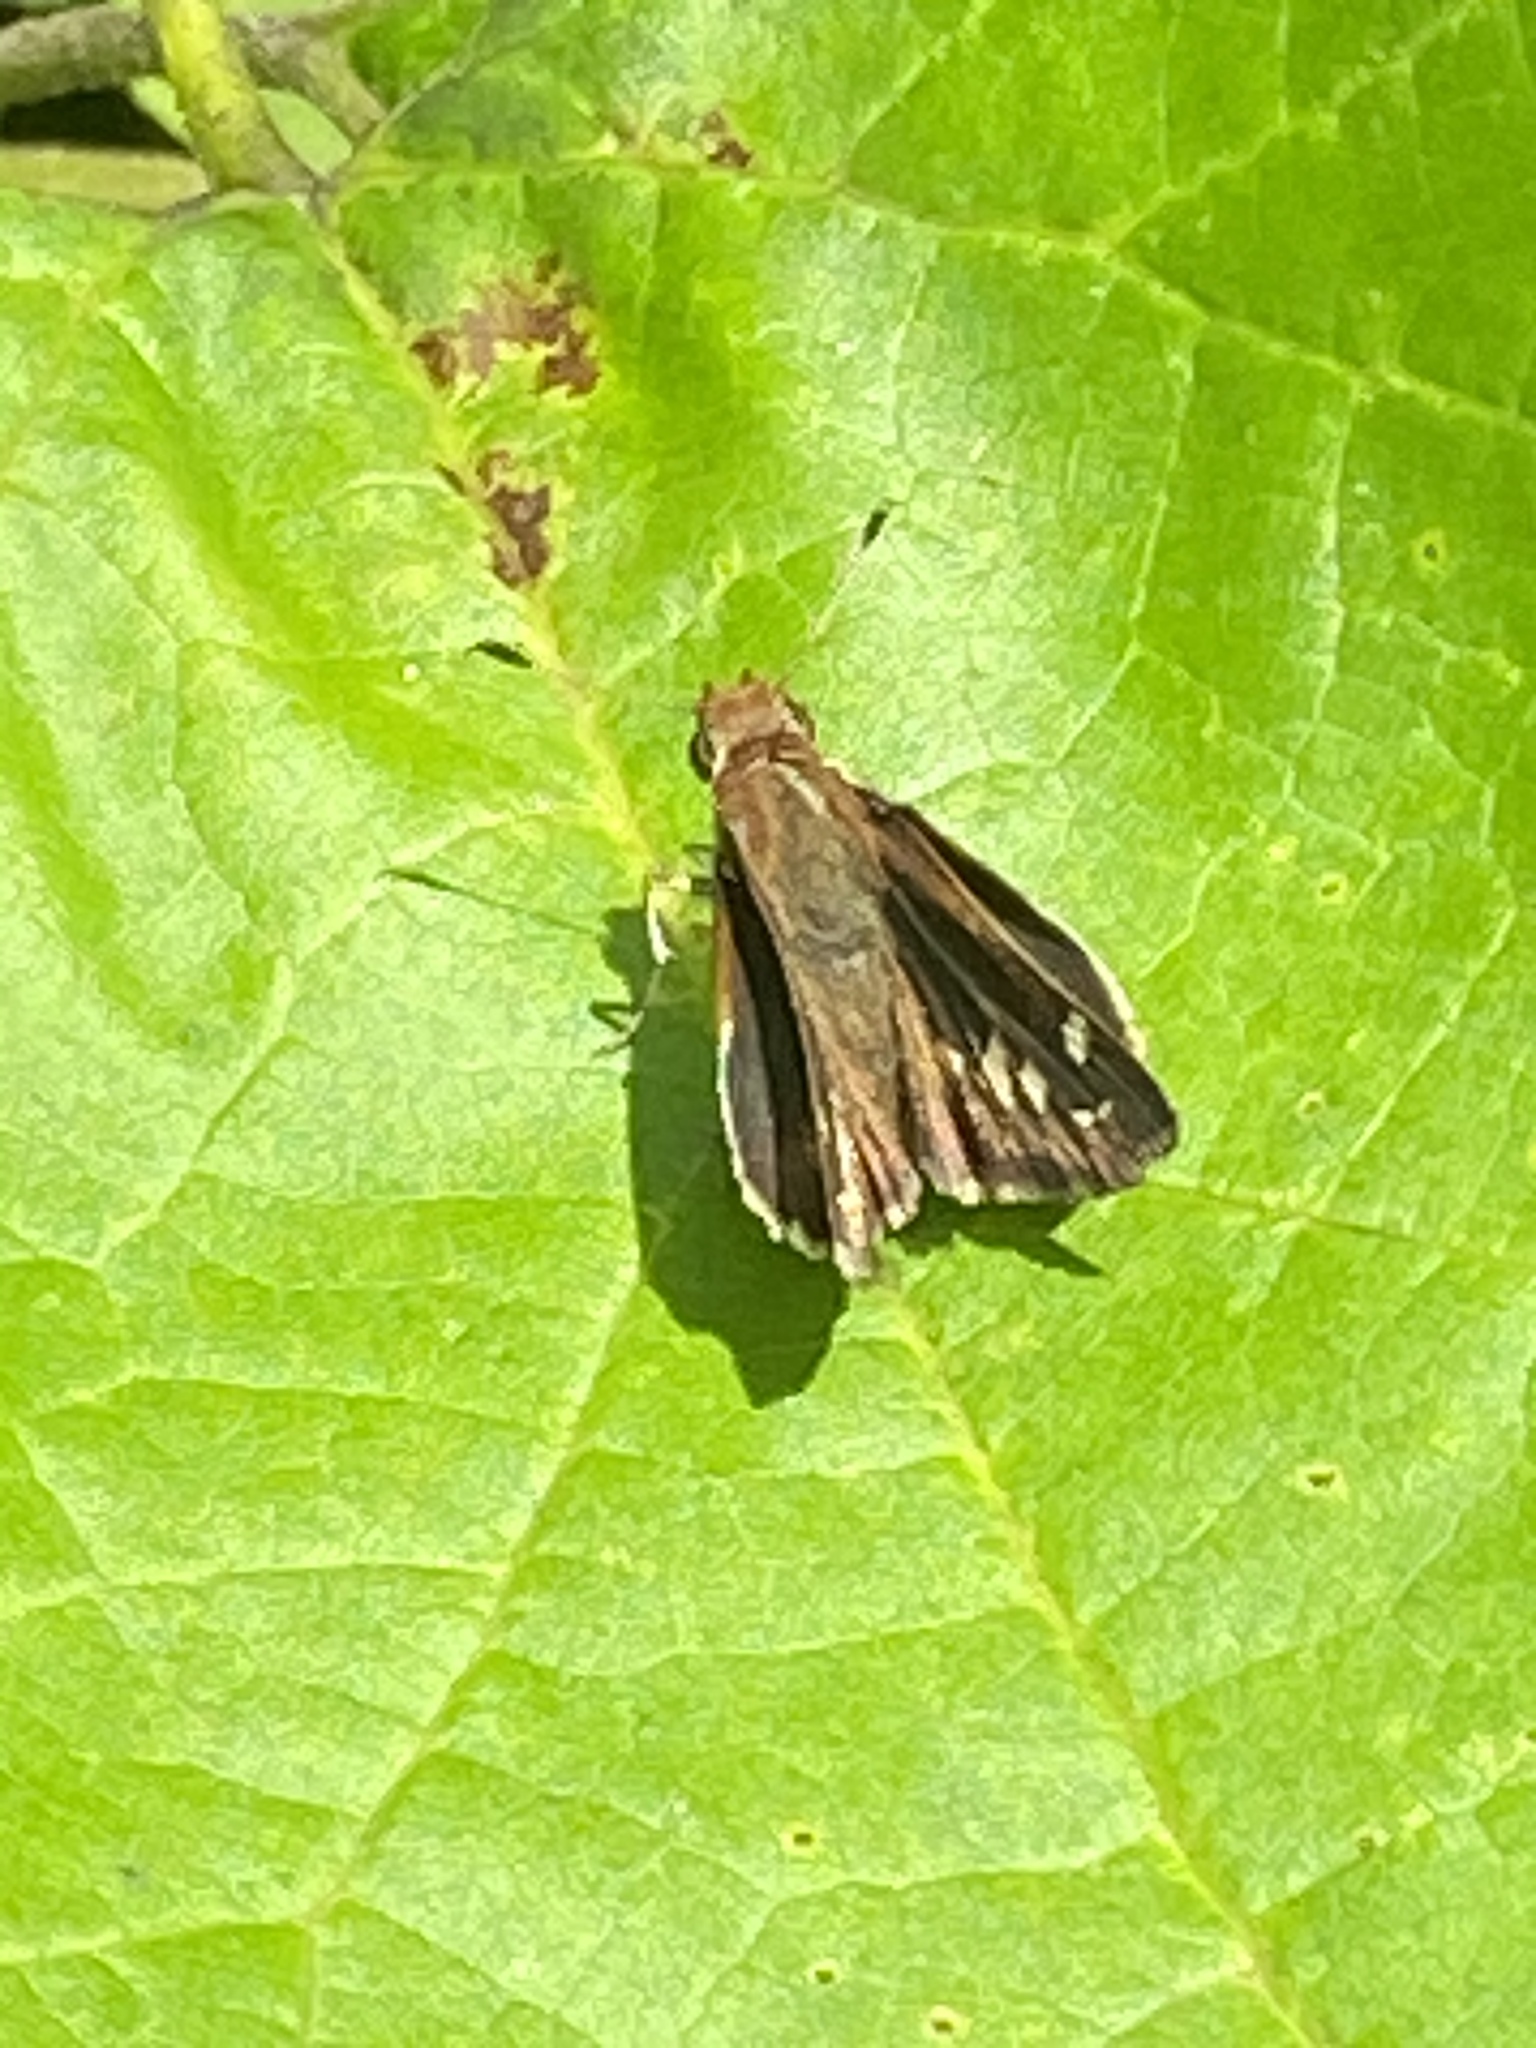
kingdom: Animalia
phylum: Arthropoda
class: Insecta
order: Lepidoptera
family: Hesperiidae
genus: Lon
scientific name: Lon zabulon
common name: Zabulon skipper
